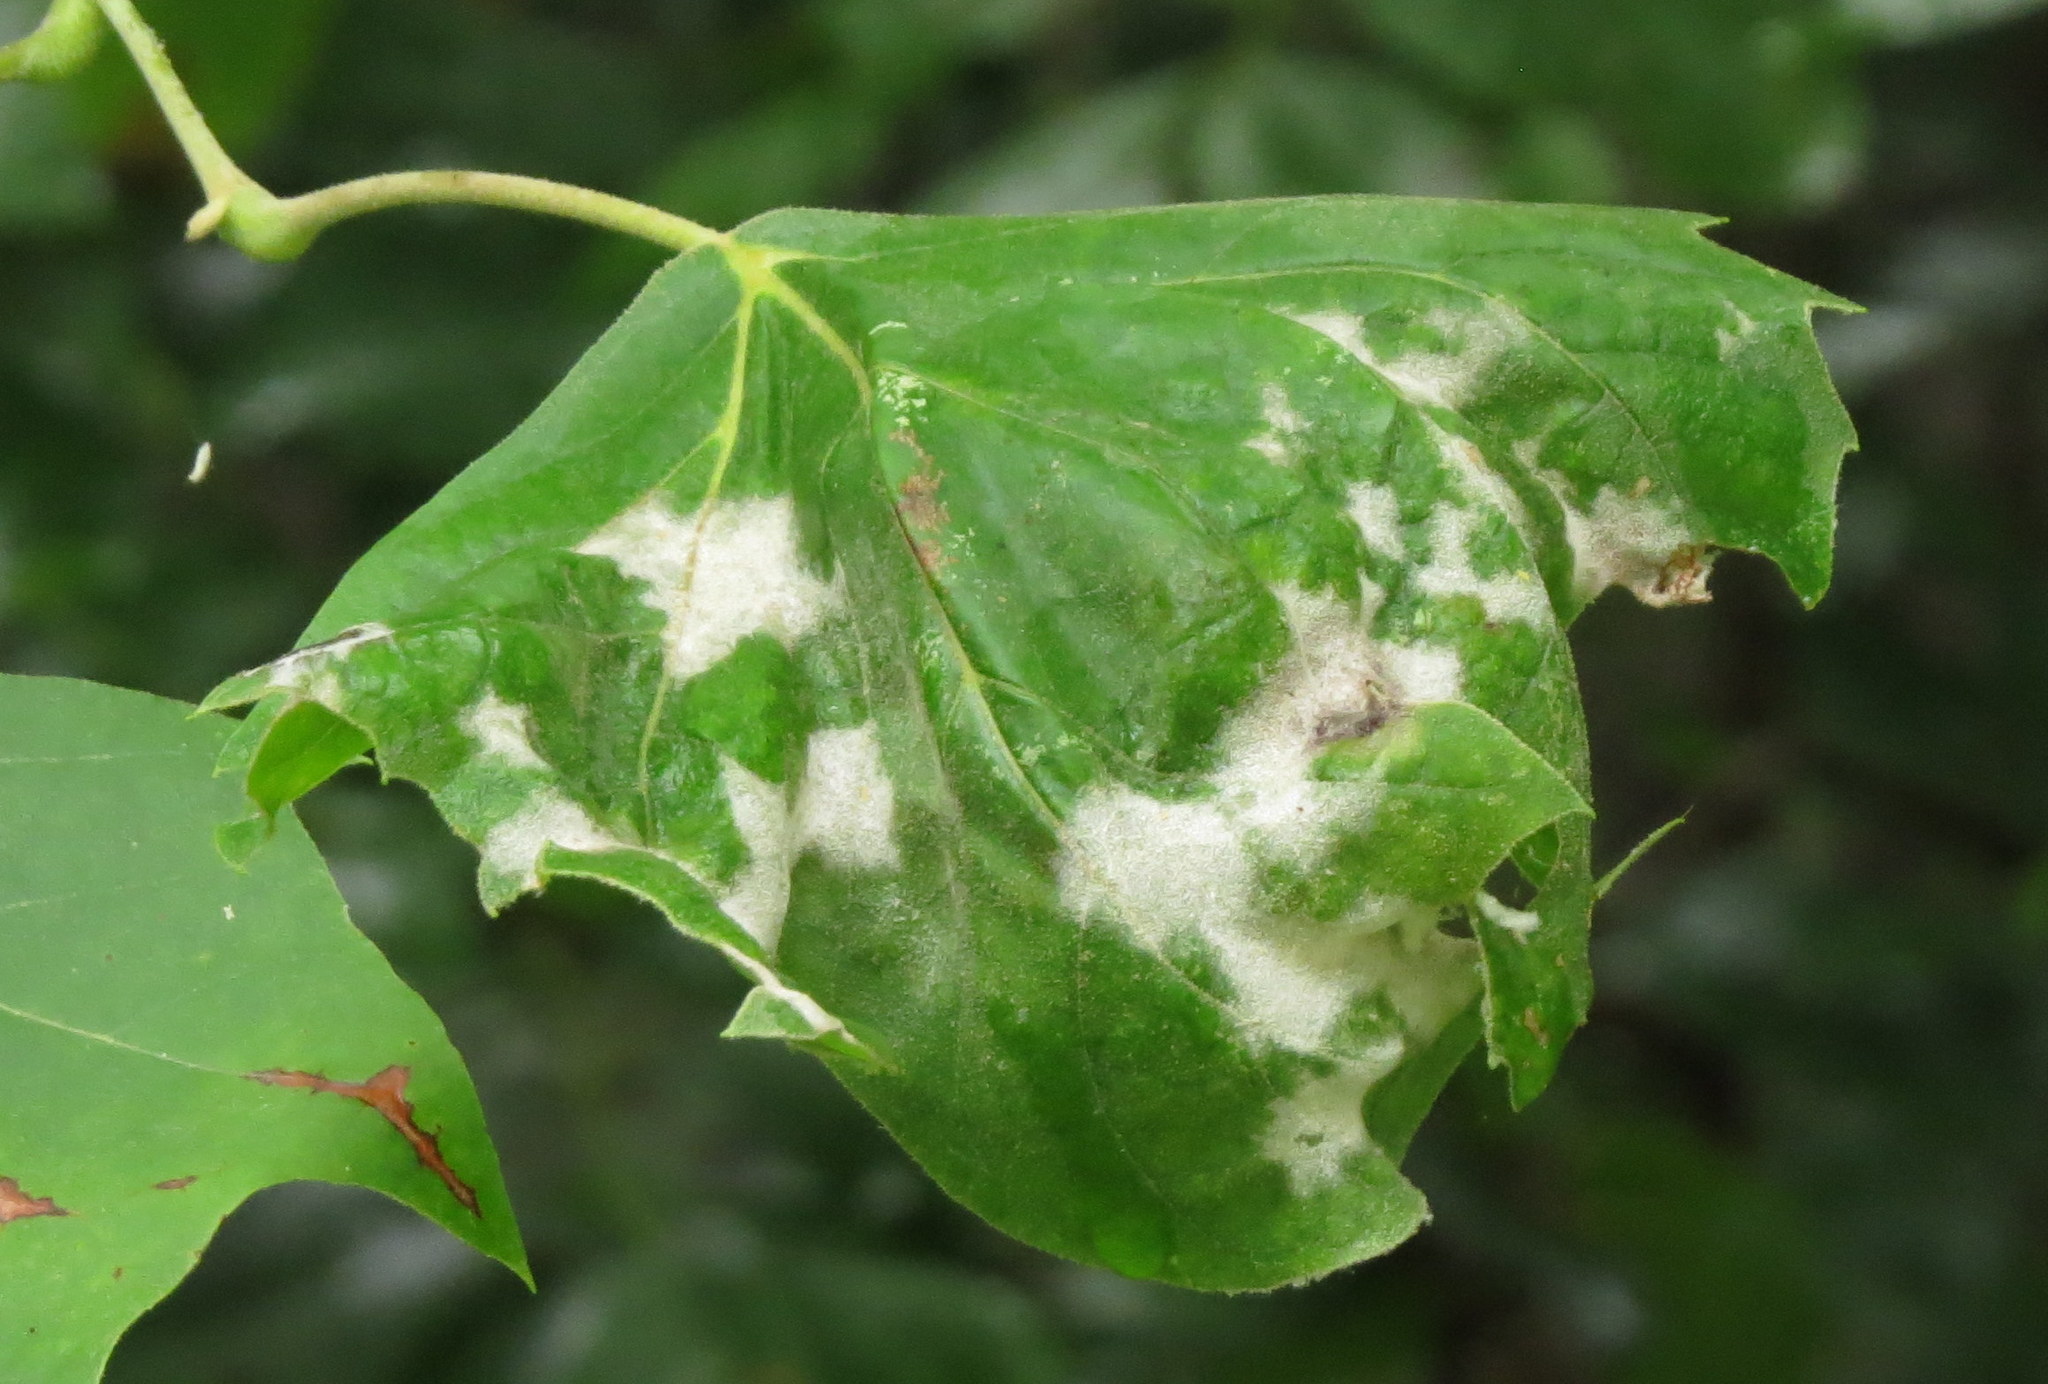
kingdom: Fungi
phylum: Ascomycota
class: Leotiomycetes
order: Helotiales
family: Erysiphaceae
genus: Erysiphe
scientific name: Erysiphe platani
